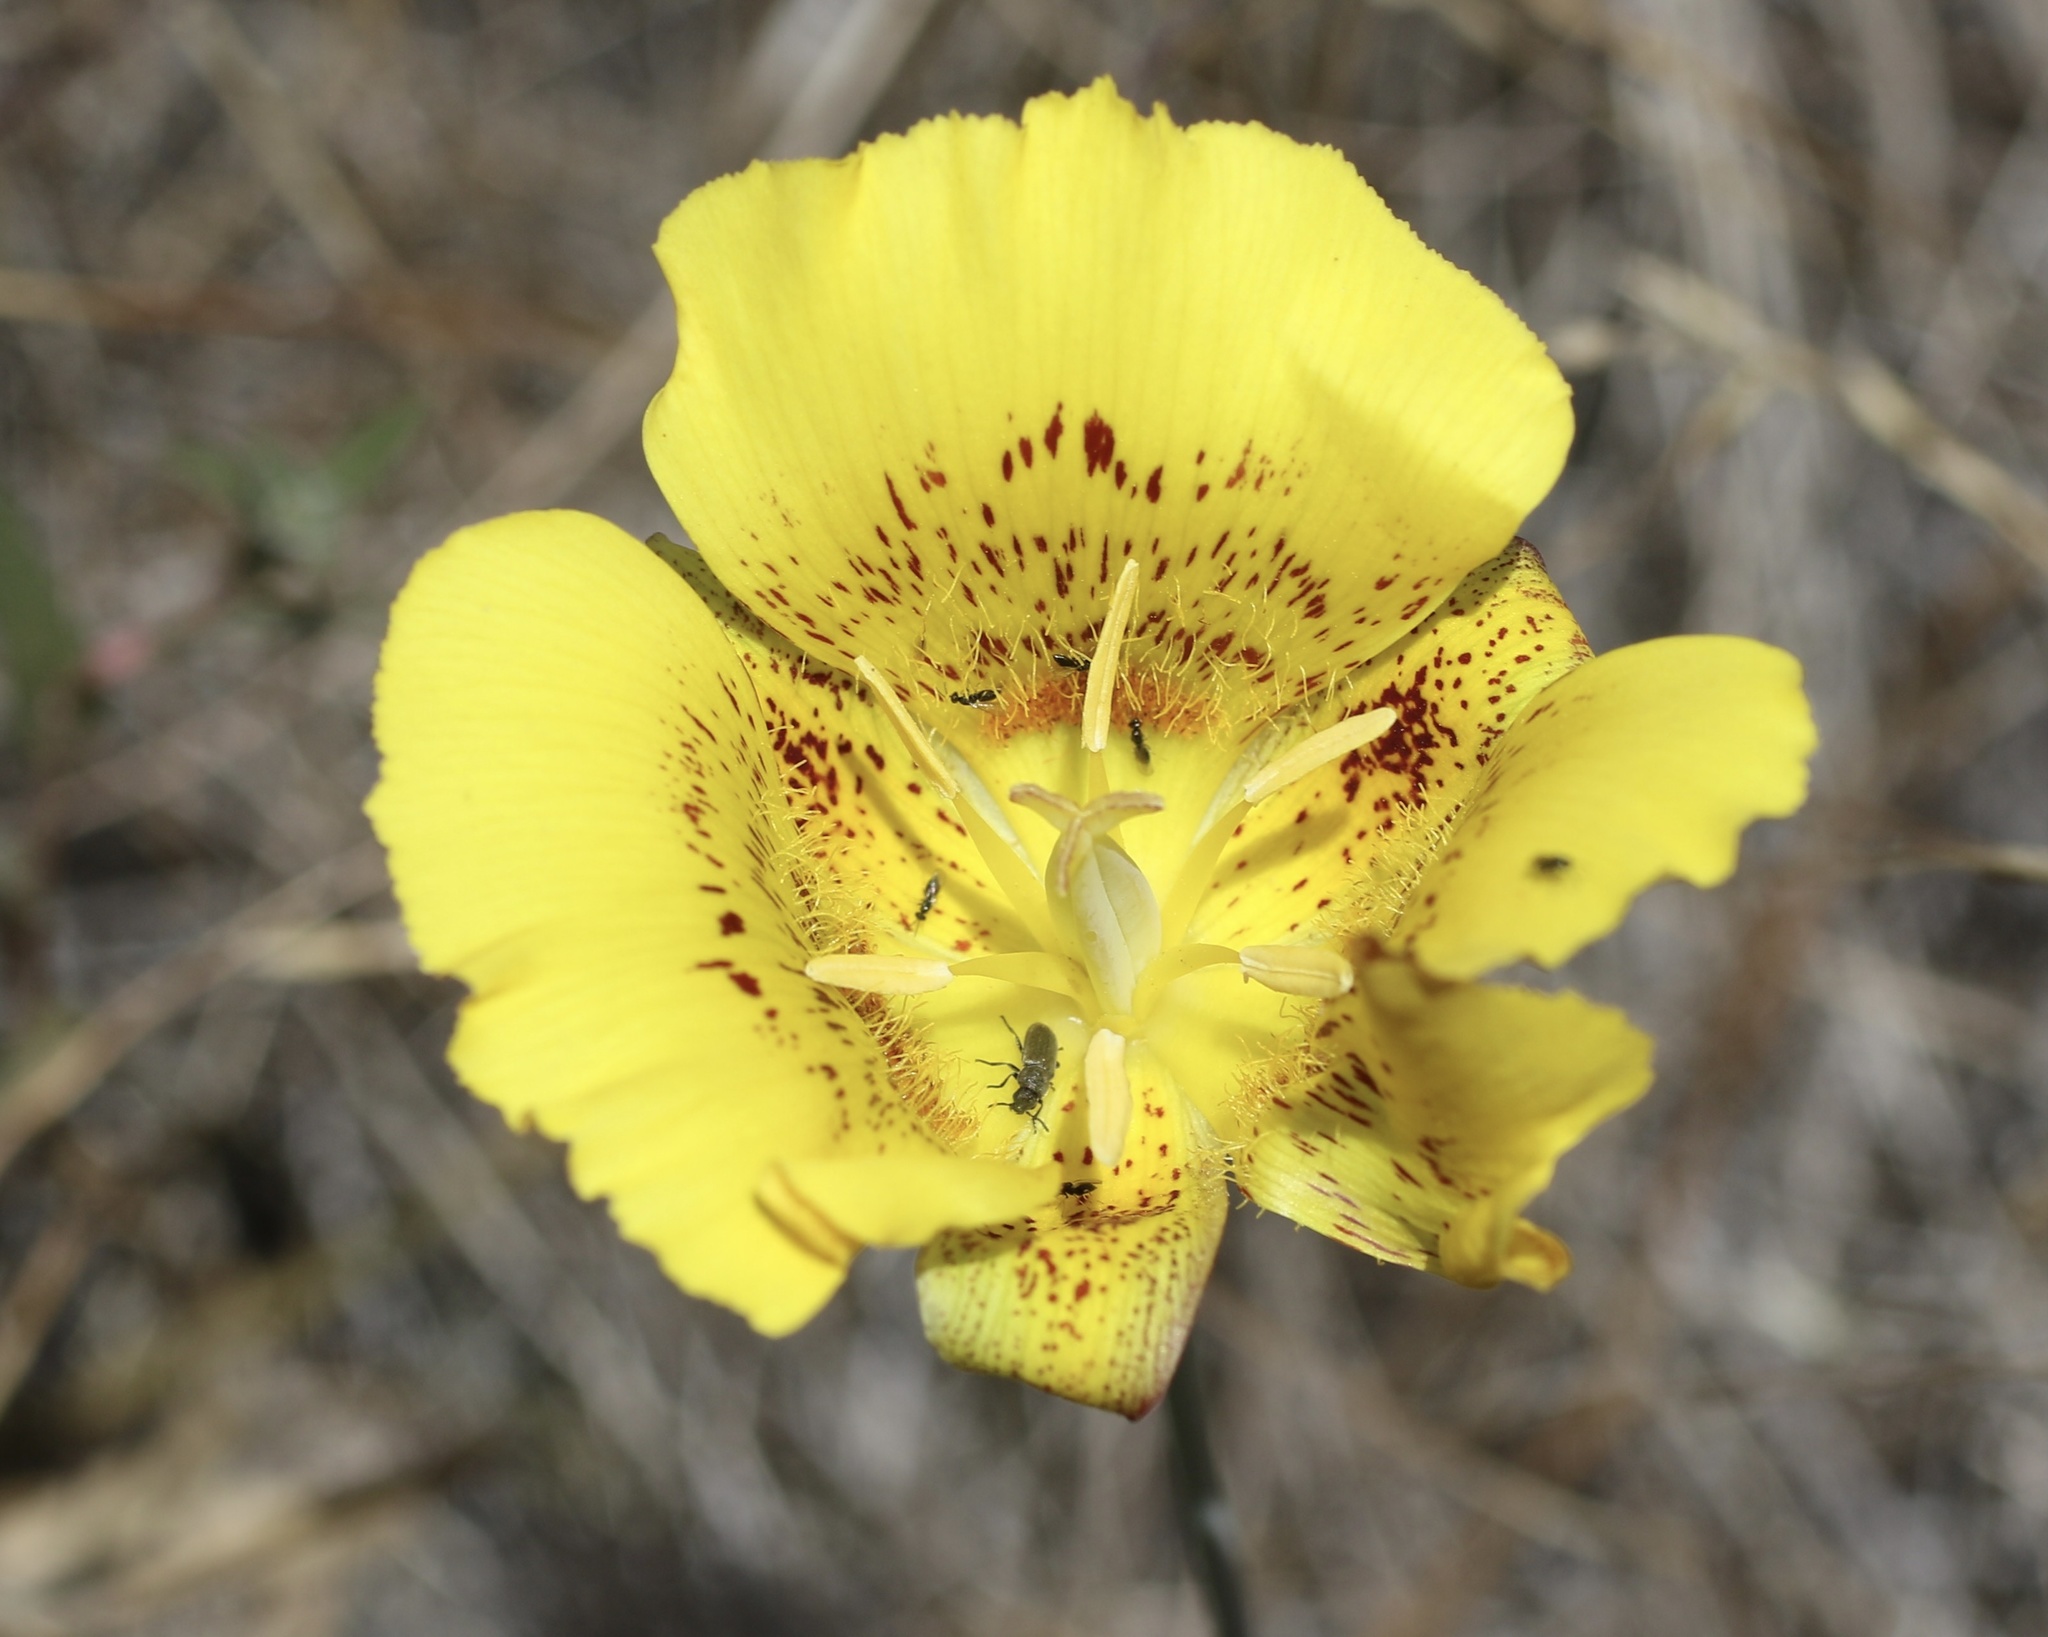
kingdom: Plantae
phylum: Tracheophyta
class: Liliopsida
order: Liliales
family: Liliaceae
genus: Calochortus
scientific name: Calochortus luteus
